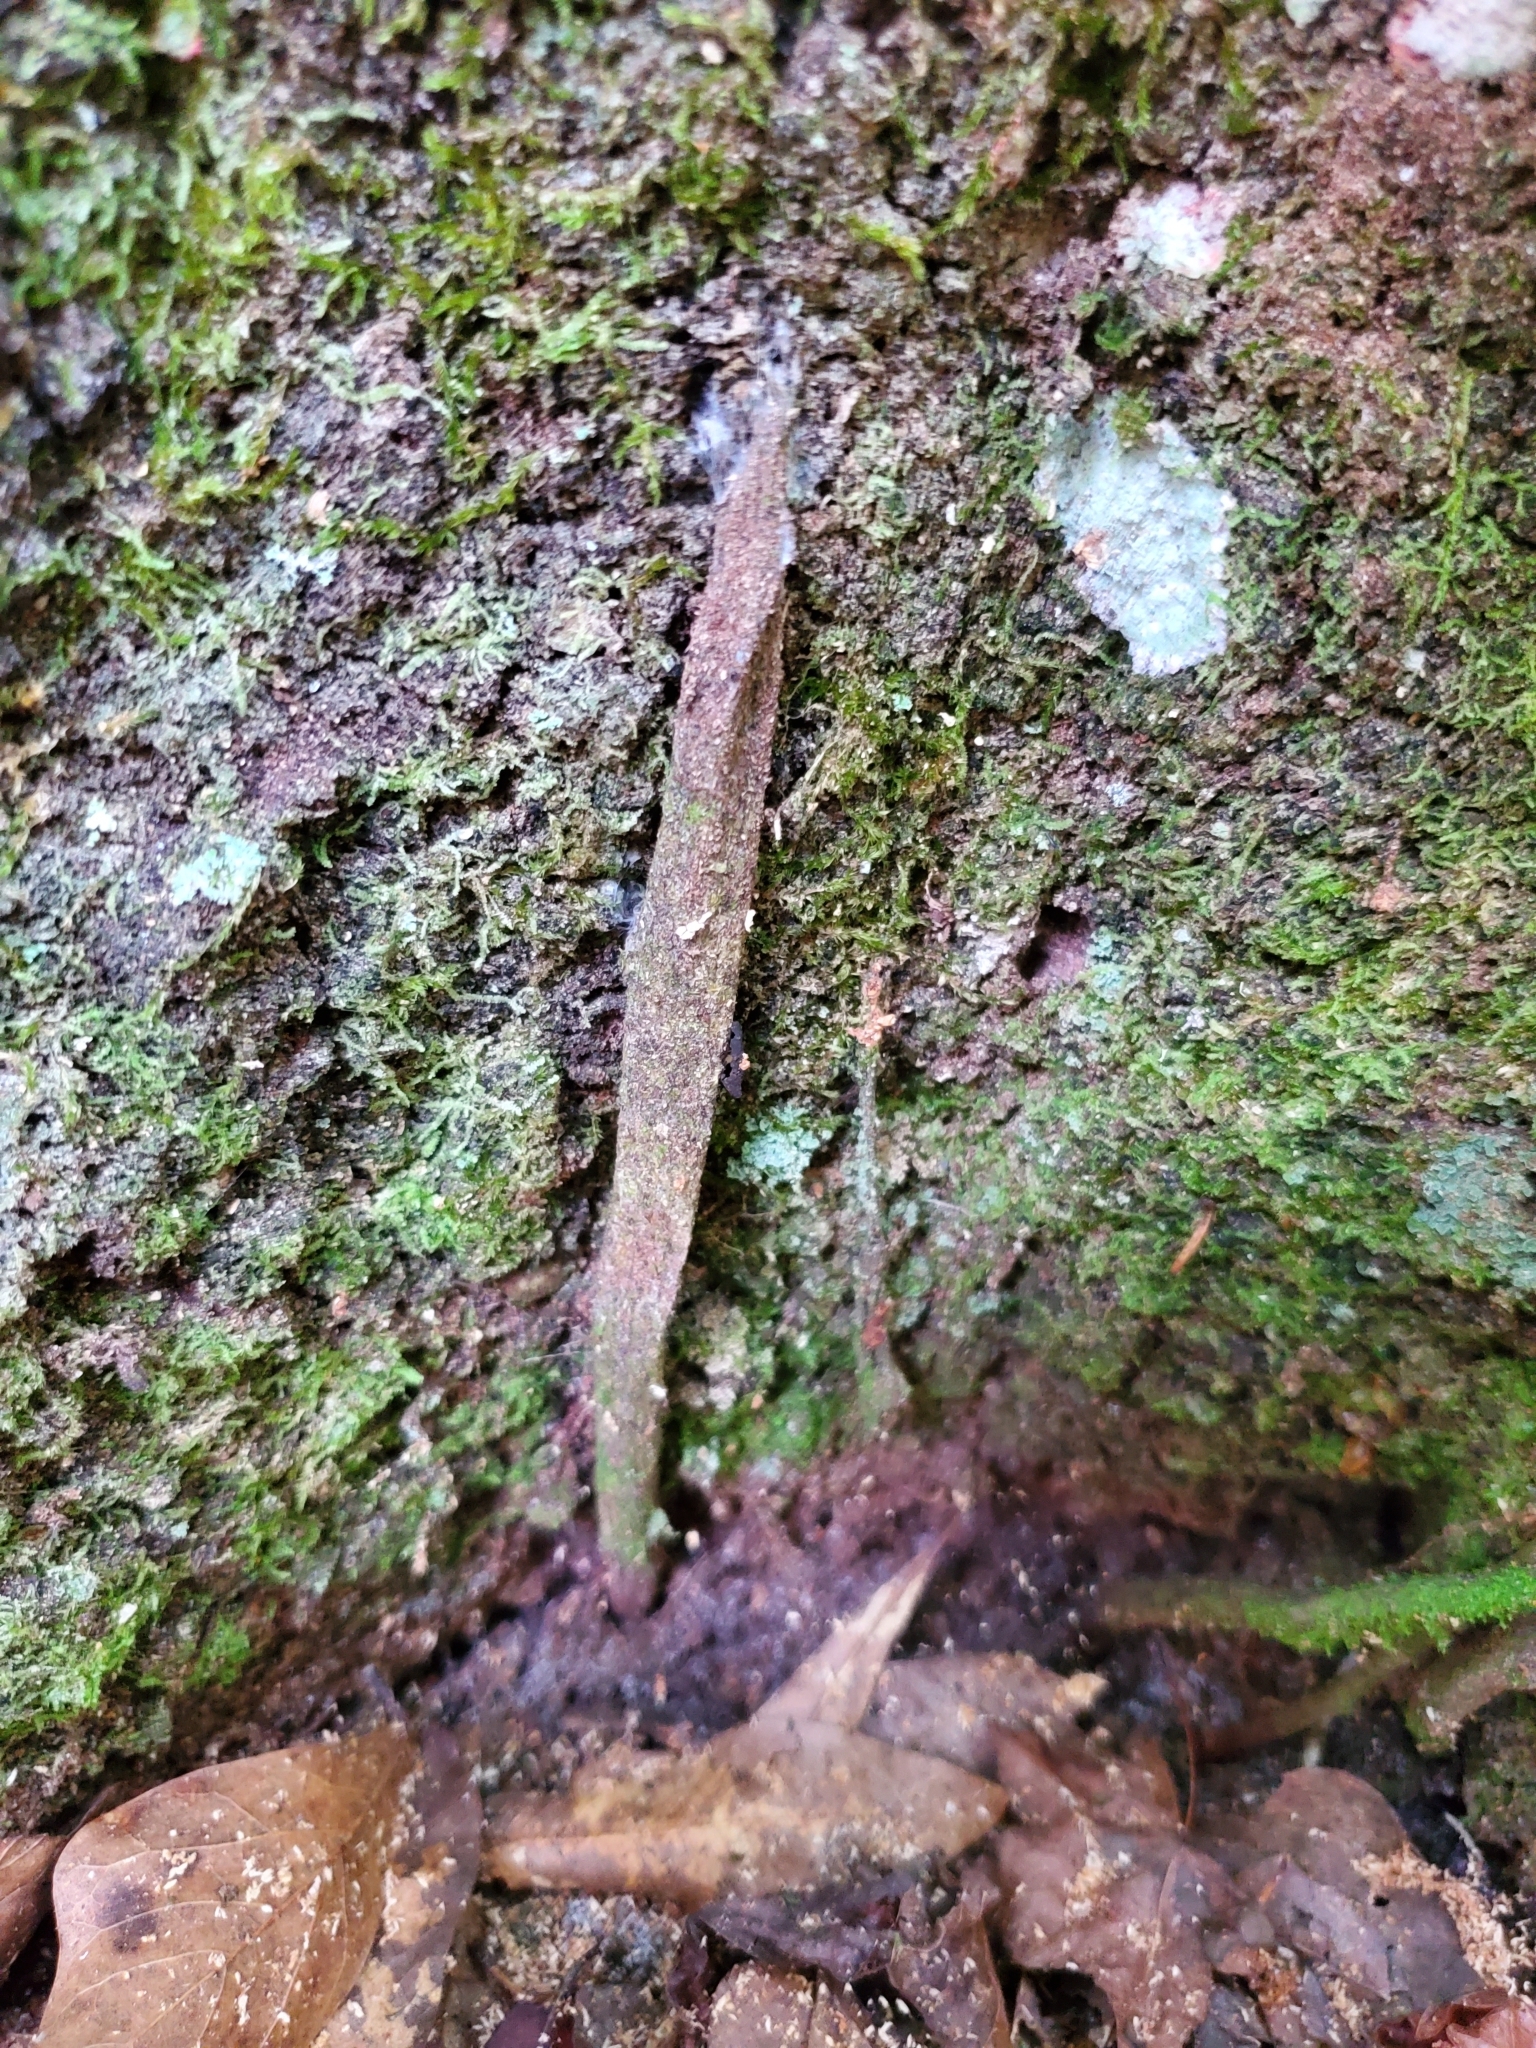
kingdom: Animalia
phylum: Arthropoda
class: Arachnida
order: Araneae
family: Atypidae
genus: Sphodros
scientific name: Sphodros abboti
